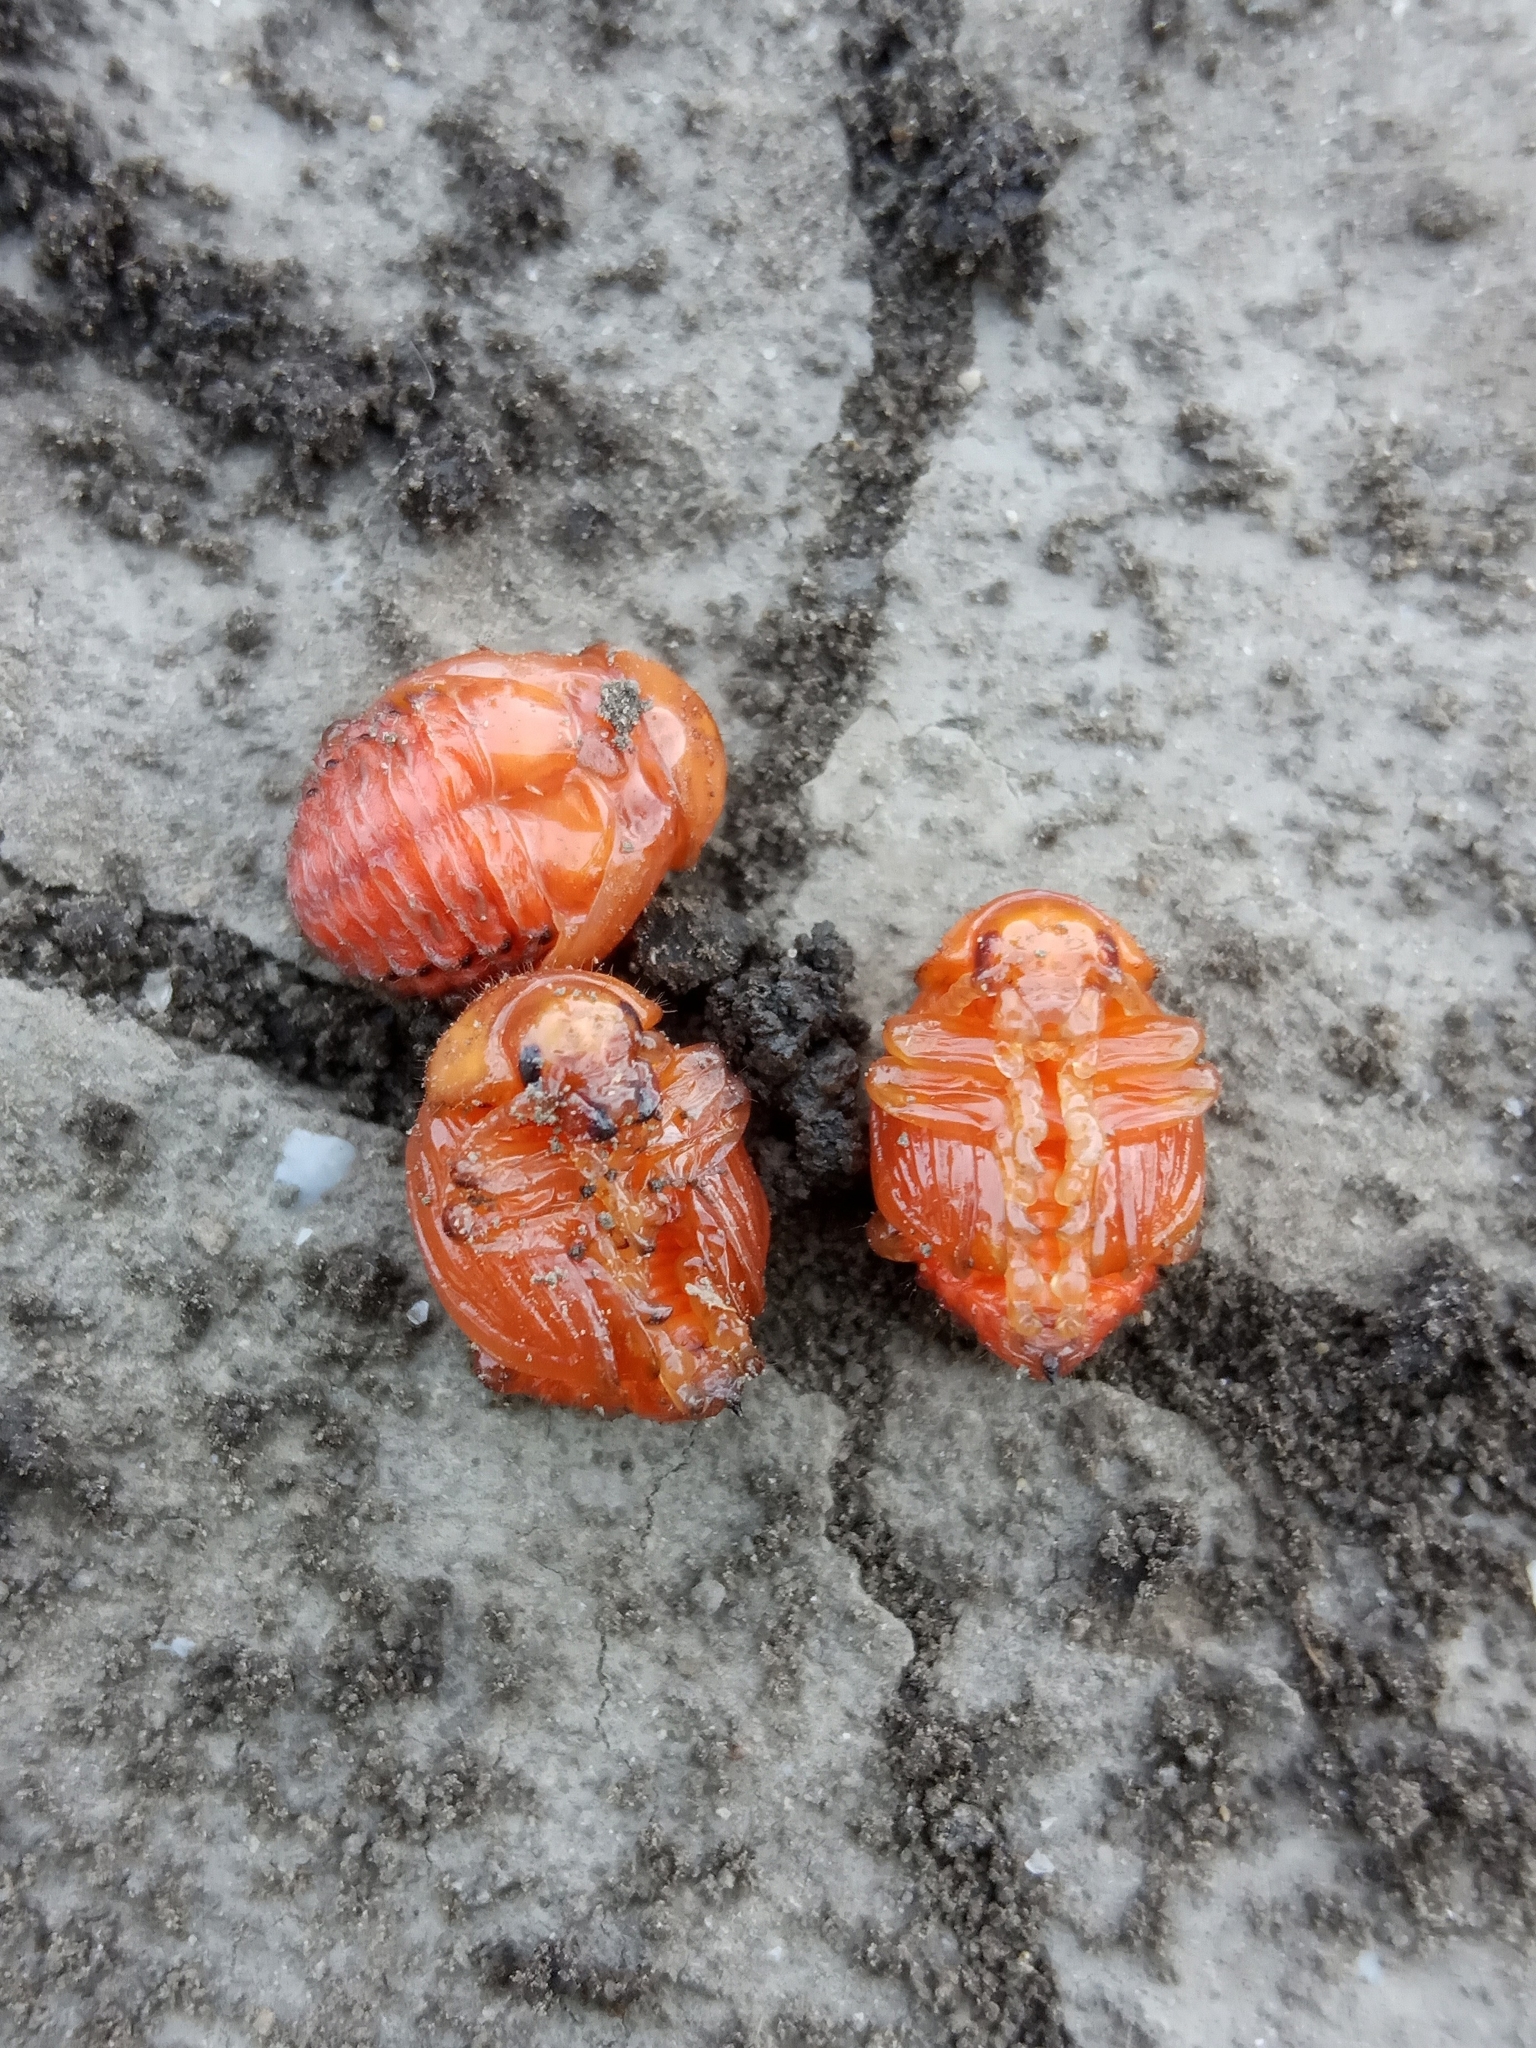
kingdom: Animalia
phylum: Arthropoda
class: Insecta
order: Coleoptera
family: Chrysomelidae
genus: Leptinotarsa
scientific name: Leptinotarsa decemlineata
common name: Colorado potato beetle
